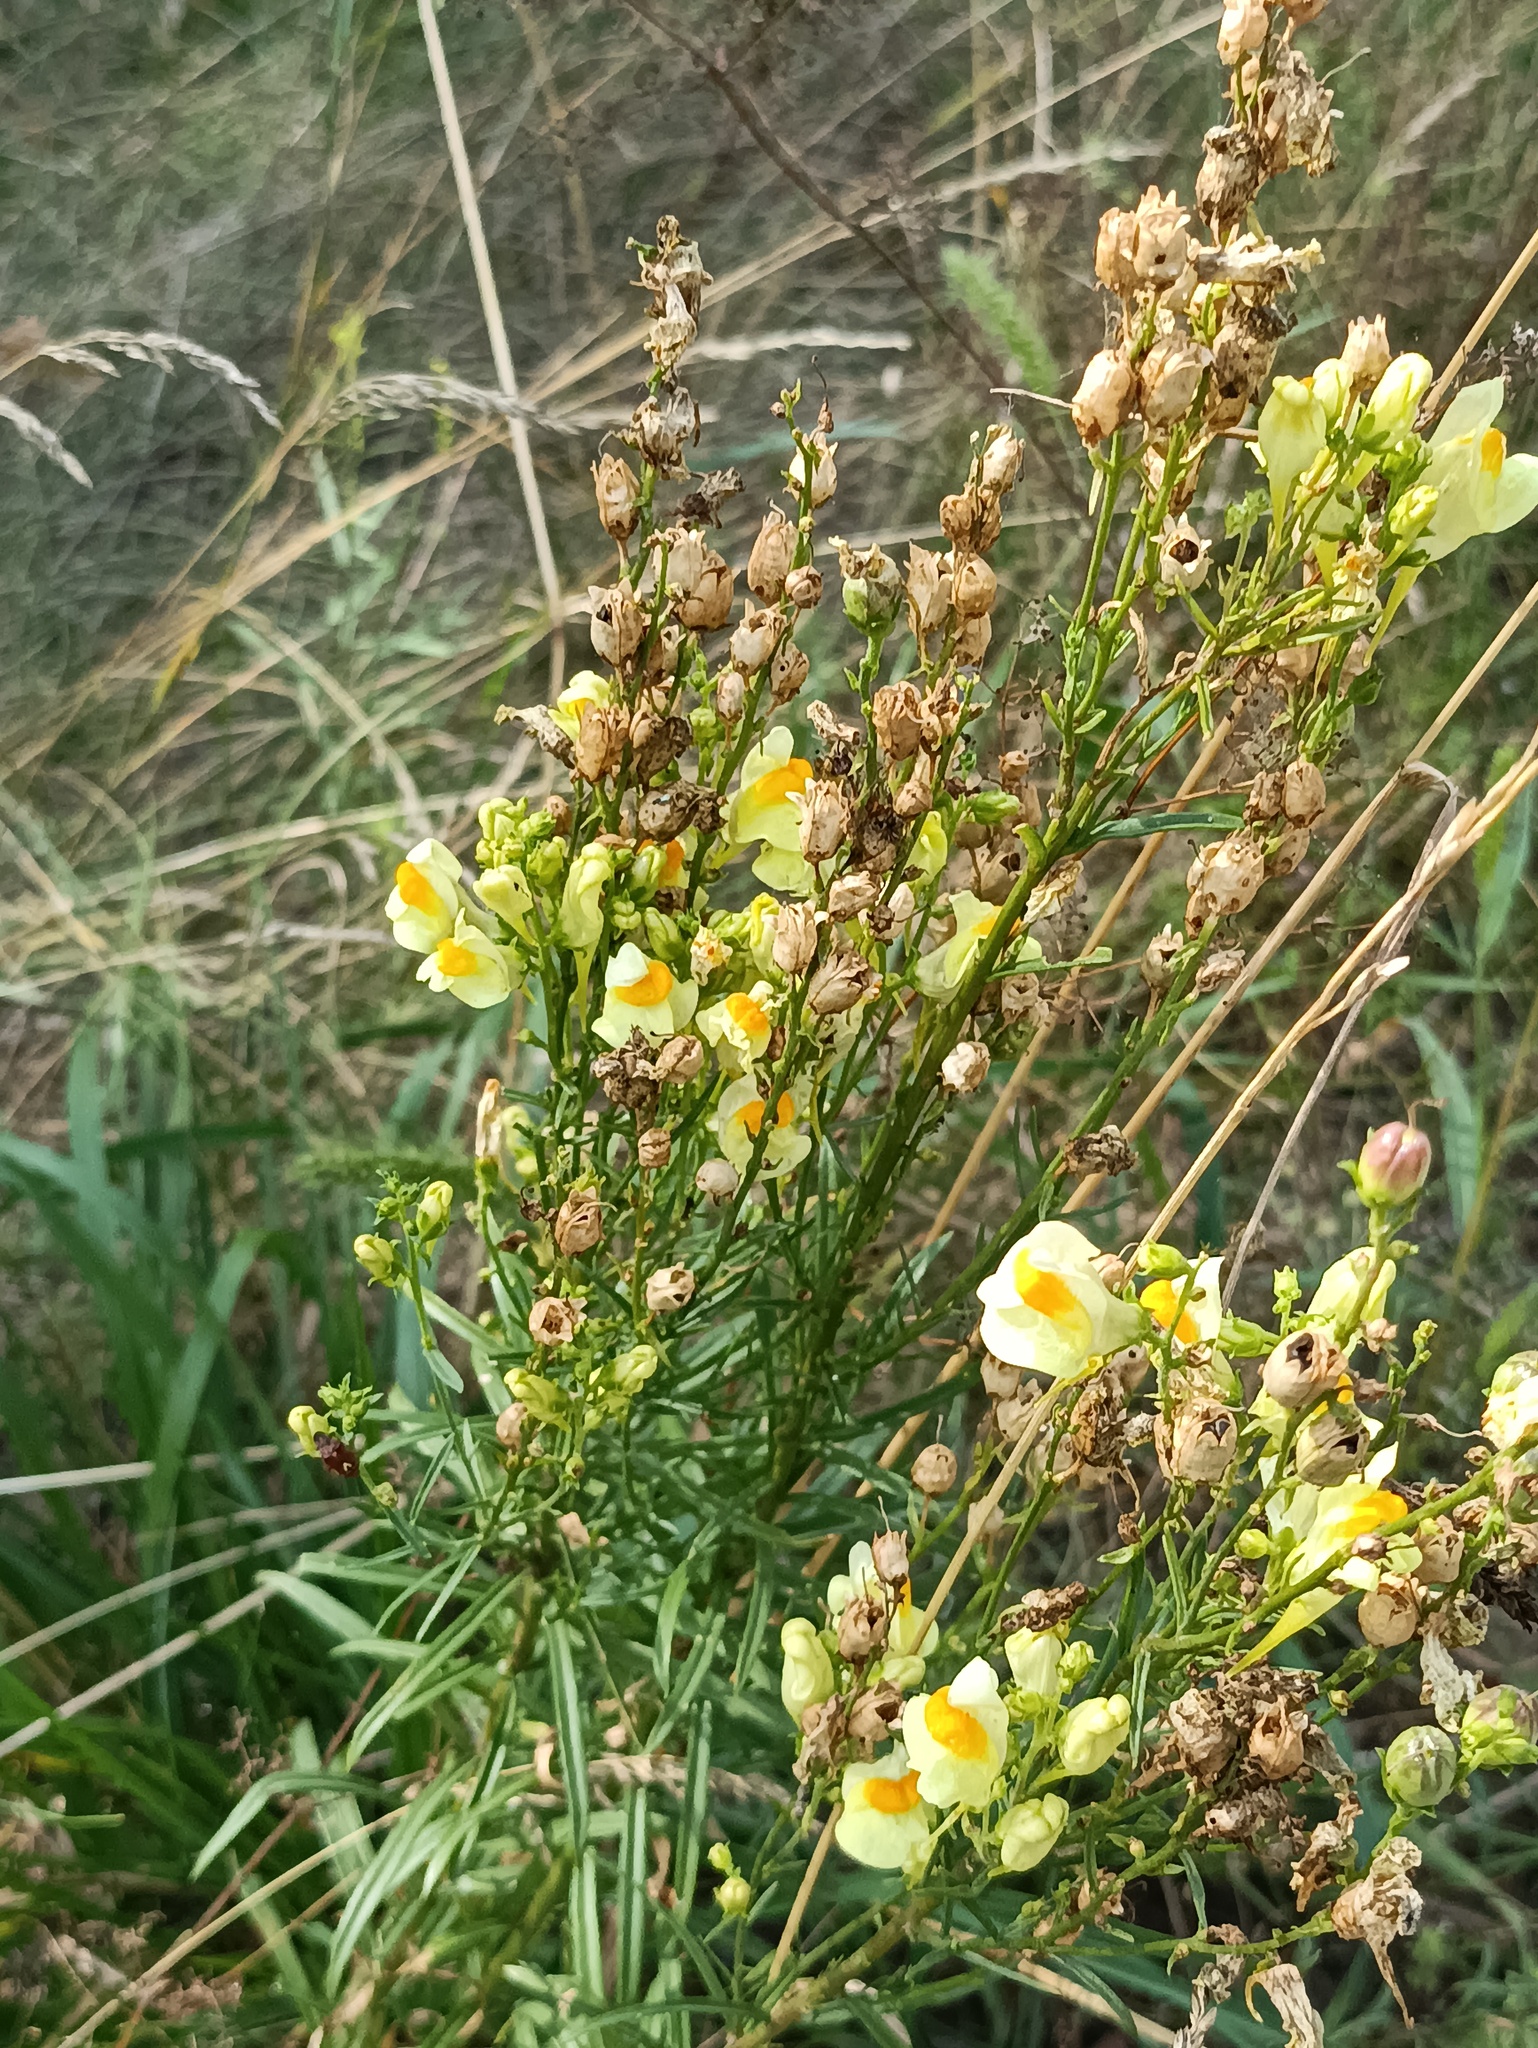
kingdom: Plantae
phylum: Tracheophyta
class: Magnoliopsida
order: Lamiales
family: Plantaginaceae
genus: Linaria
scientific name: Linaria vulgaris
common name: Butter and eggs
